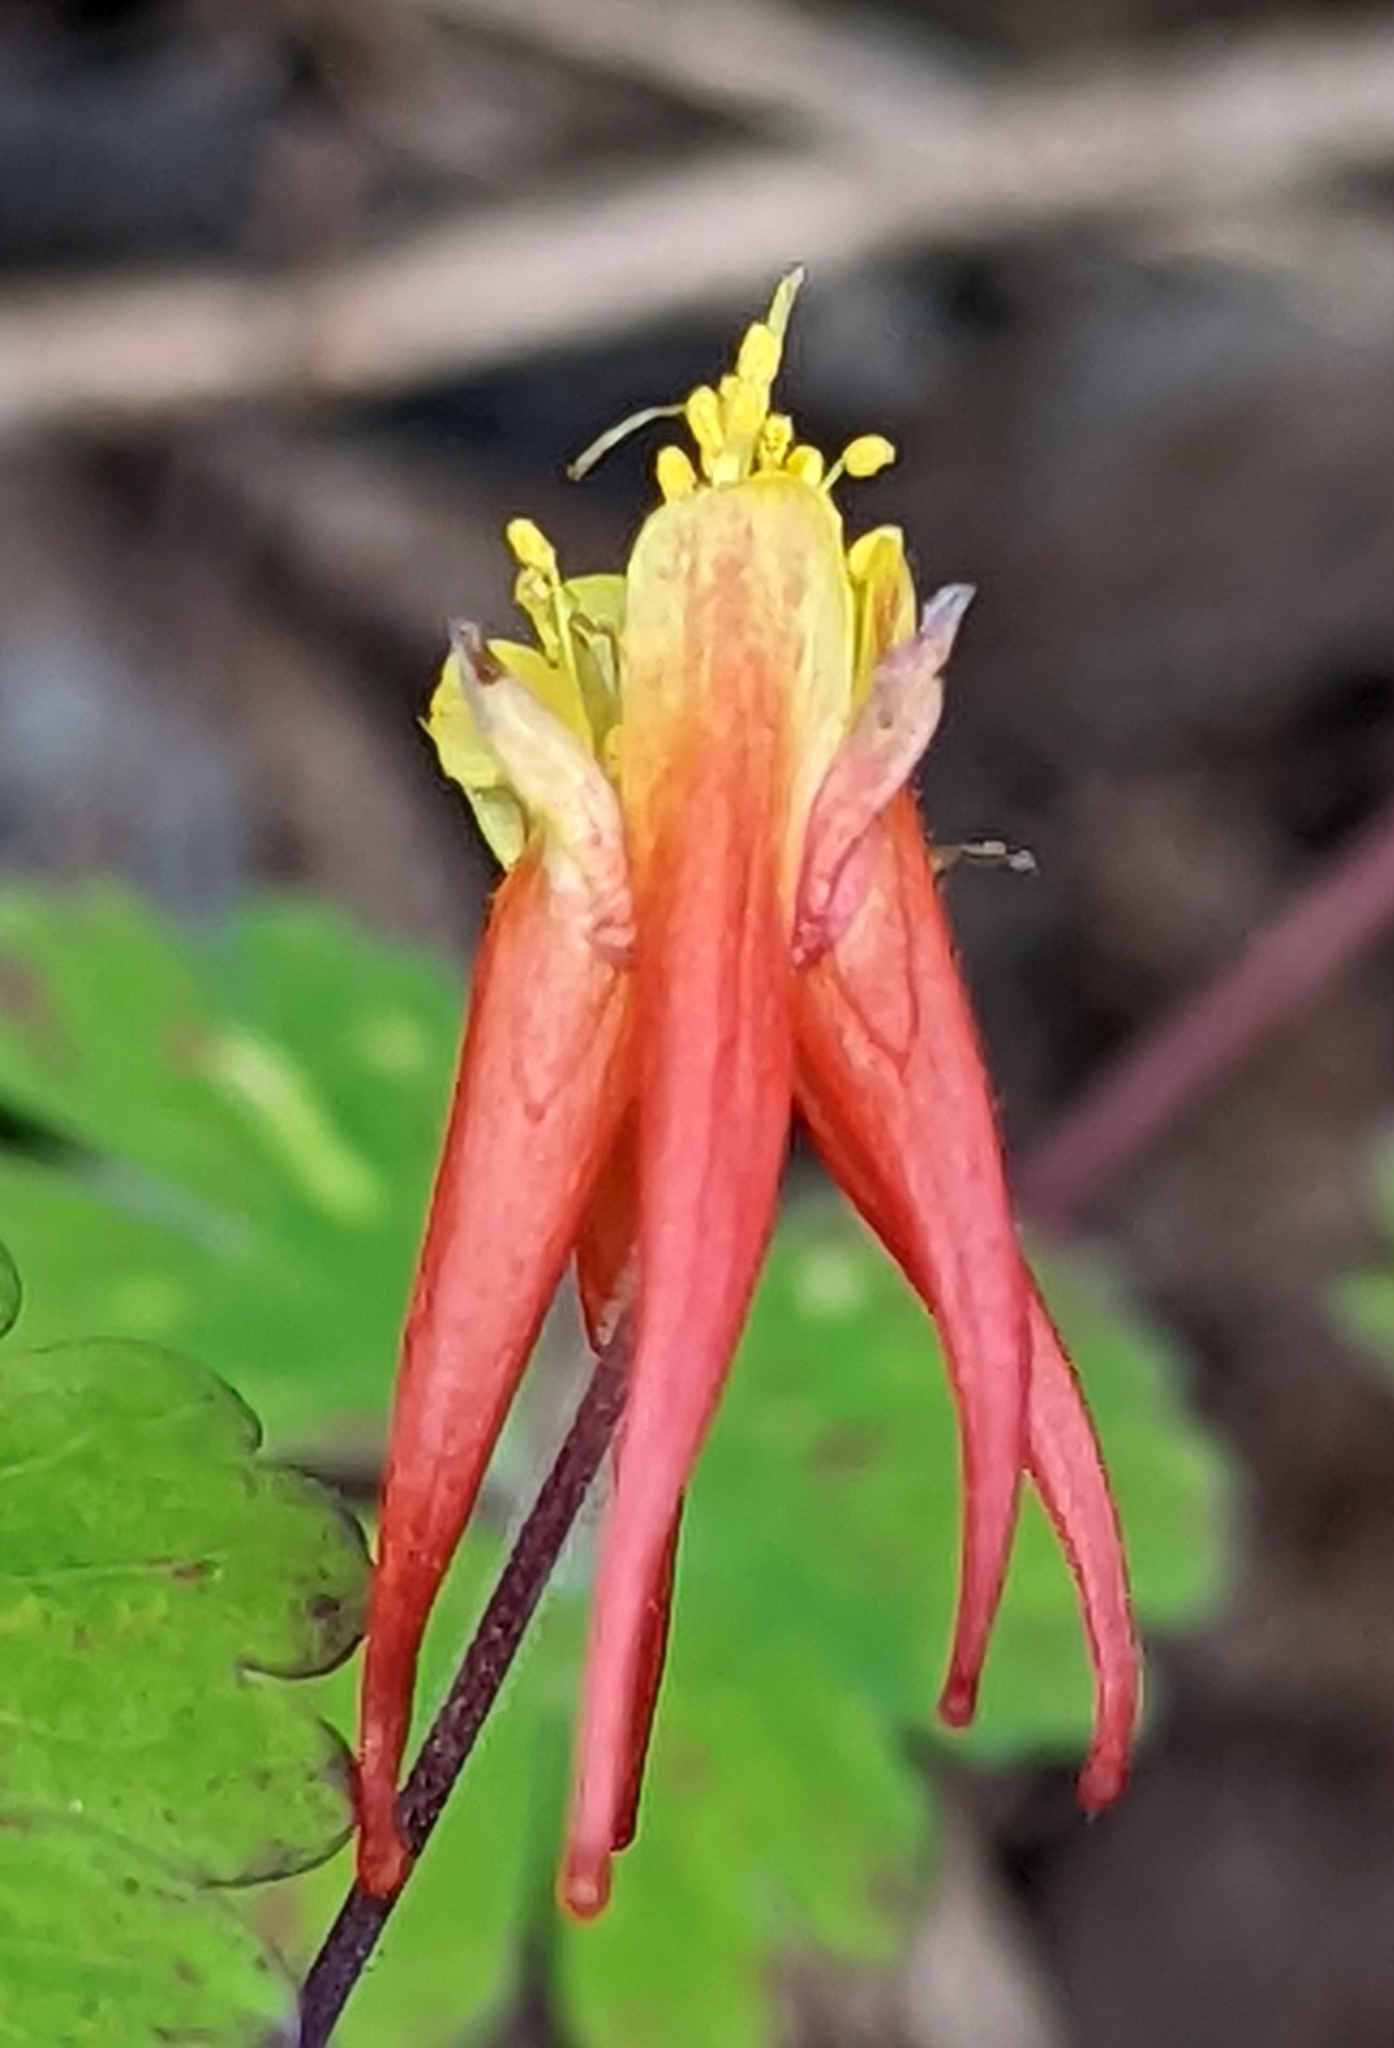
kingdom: Plantae
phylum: Tracheophyta
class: Magnoliopsida
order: Ranunculales
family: Ranunculaceae
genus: Aquilegia
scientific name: Aquilegia elegantula
